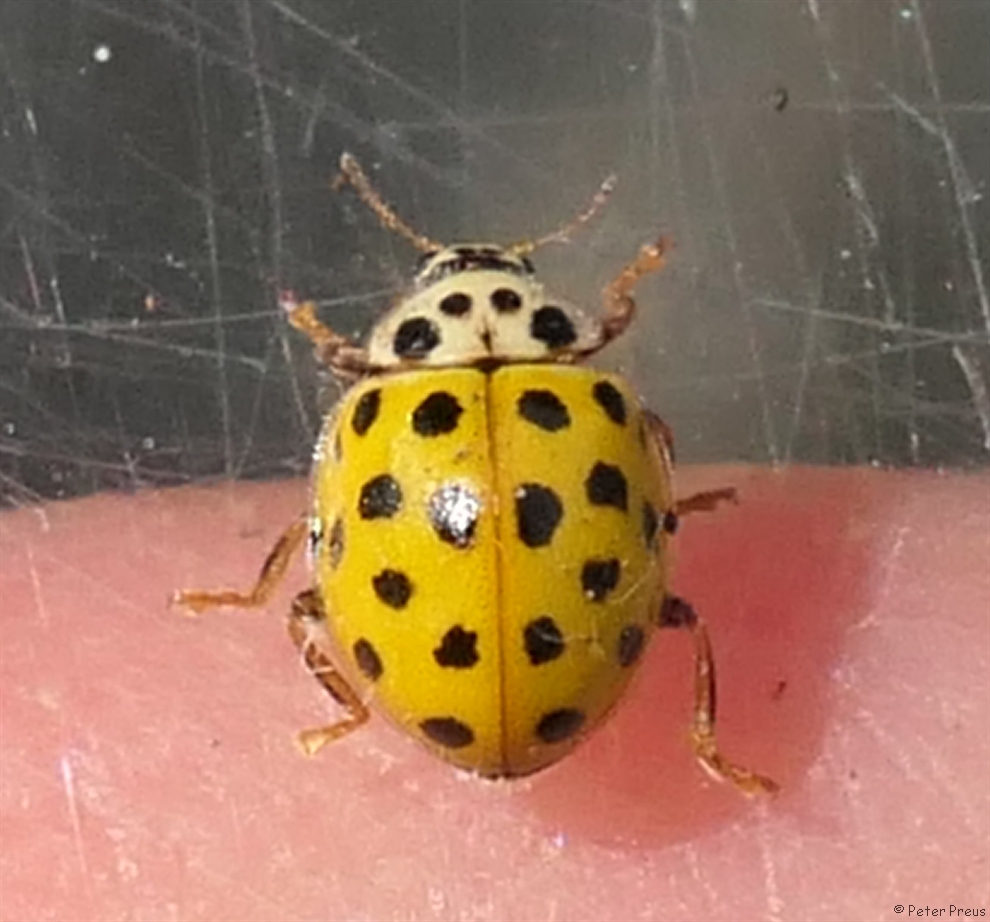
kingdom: Animalia
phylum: Arthropoda
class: Insecta
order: Coleoptera
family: Coccinellidae
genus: Psyllobora
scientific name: Psyllobora vigintiduopunctata
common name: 22-spot ladybird
